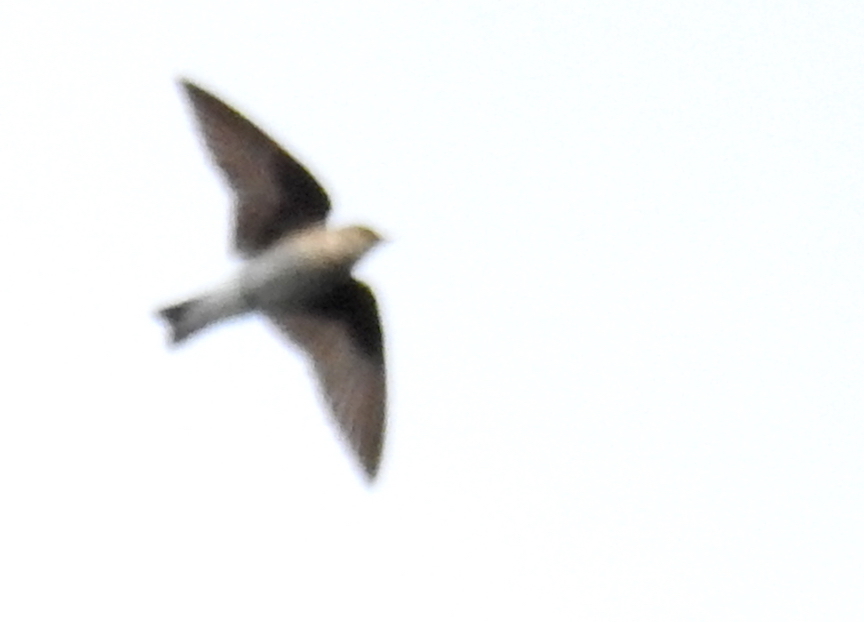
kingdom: Animalia
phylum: Chordata
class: Aves
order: Passeriformes
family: Hirundinidae
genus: Stelgidopteryx
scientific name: Stelgidopteryx serripennis
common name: Northern rough-winged swallow
